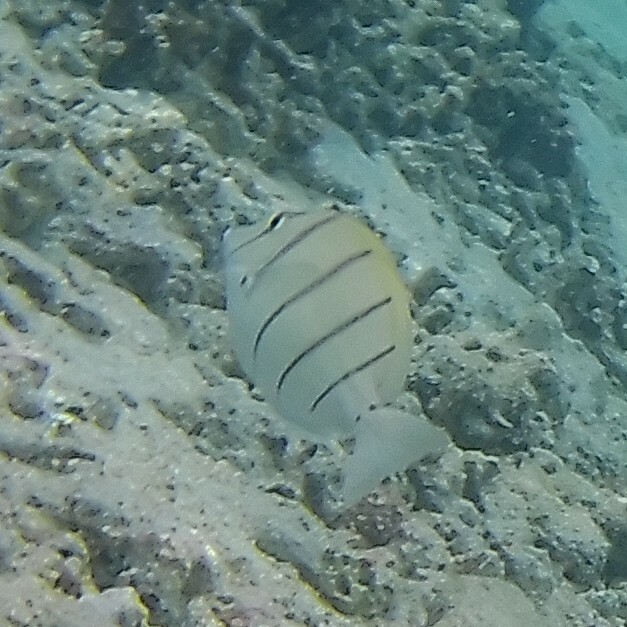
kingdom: Animalia
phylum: Chordata
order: Perciformes
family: Acanthuridae
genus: Acanthurus
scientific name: Acanthurus triostegus
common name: Convict surgeonfish
